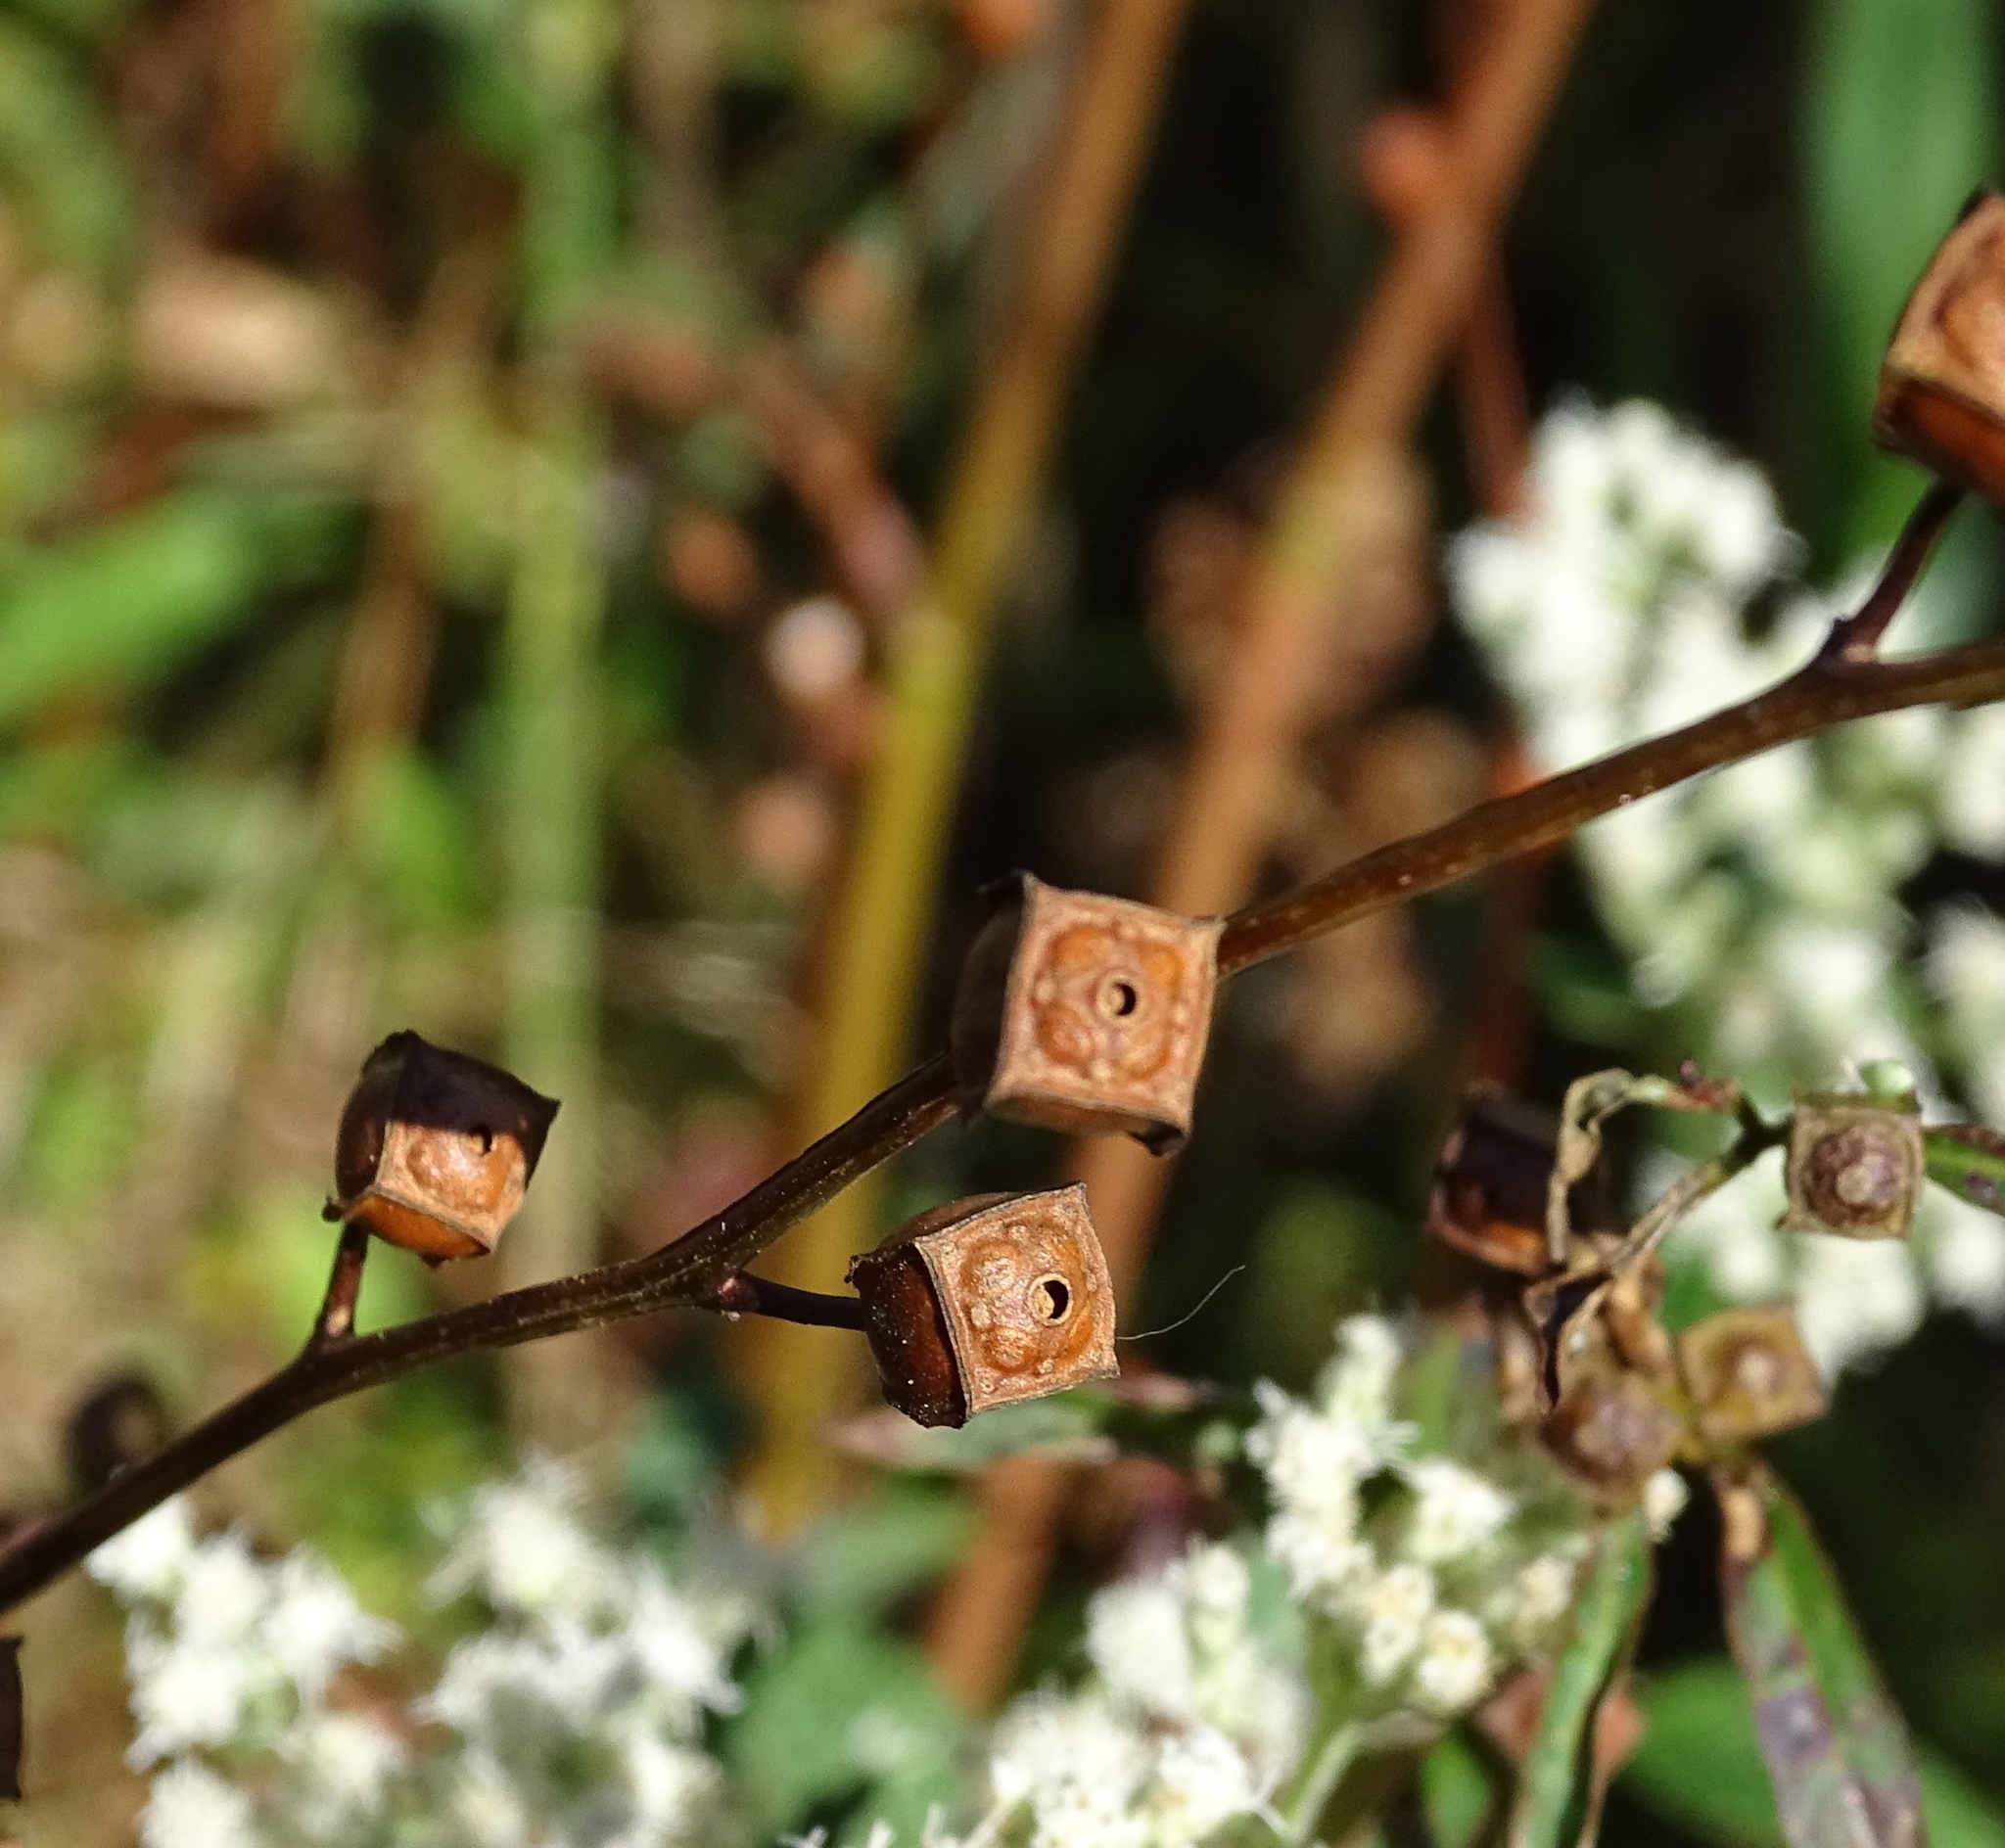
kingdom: Plantae
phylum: Tracheophyta
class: Magnoliopsida
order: Myrtales
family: Onagraceae
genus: Ludwigia
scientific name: Ludwigia alternifolia
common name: Rattlebox
